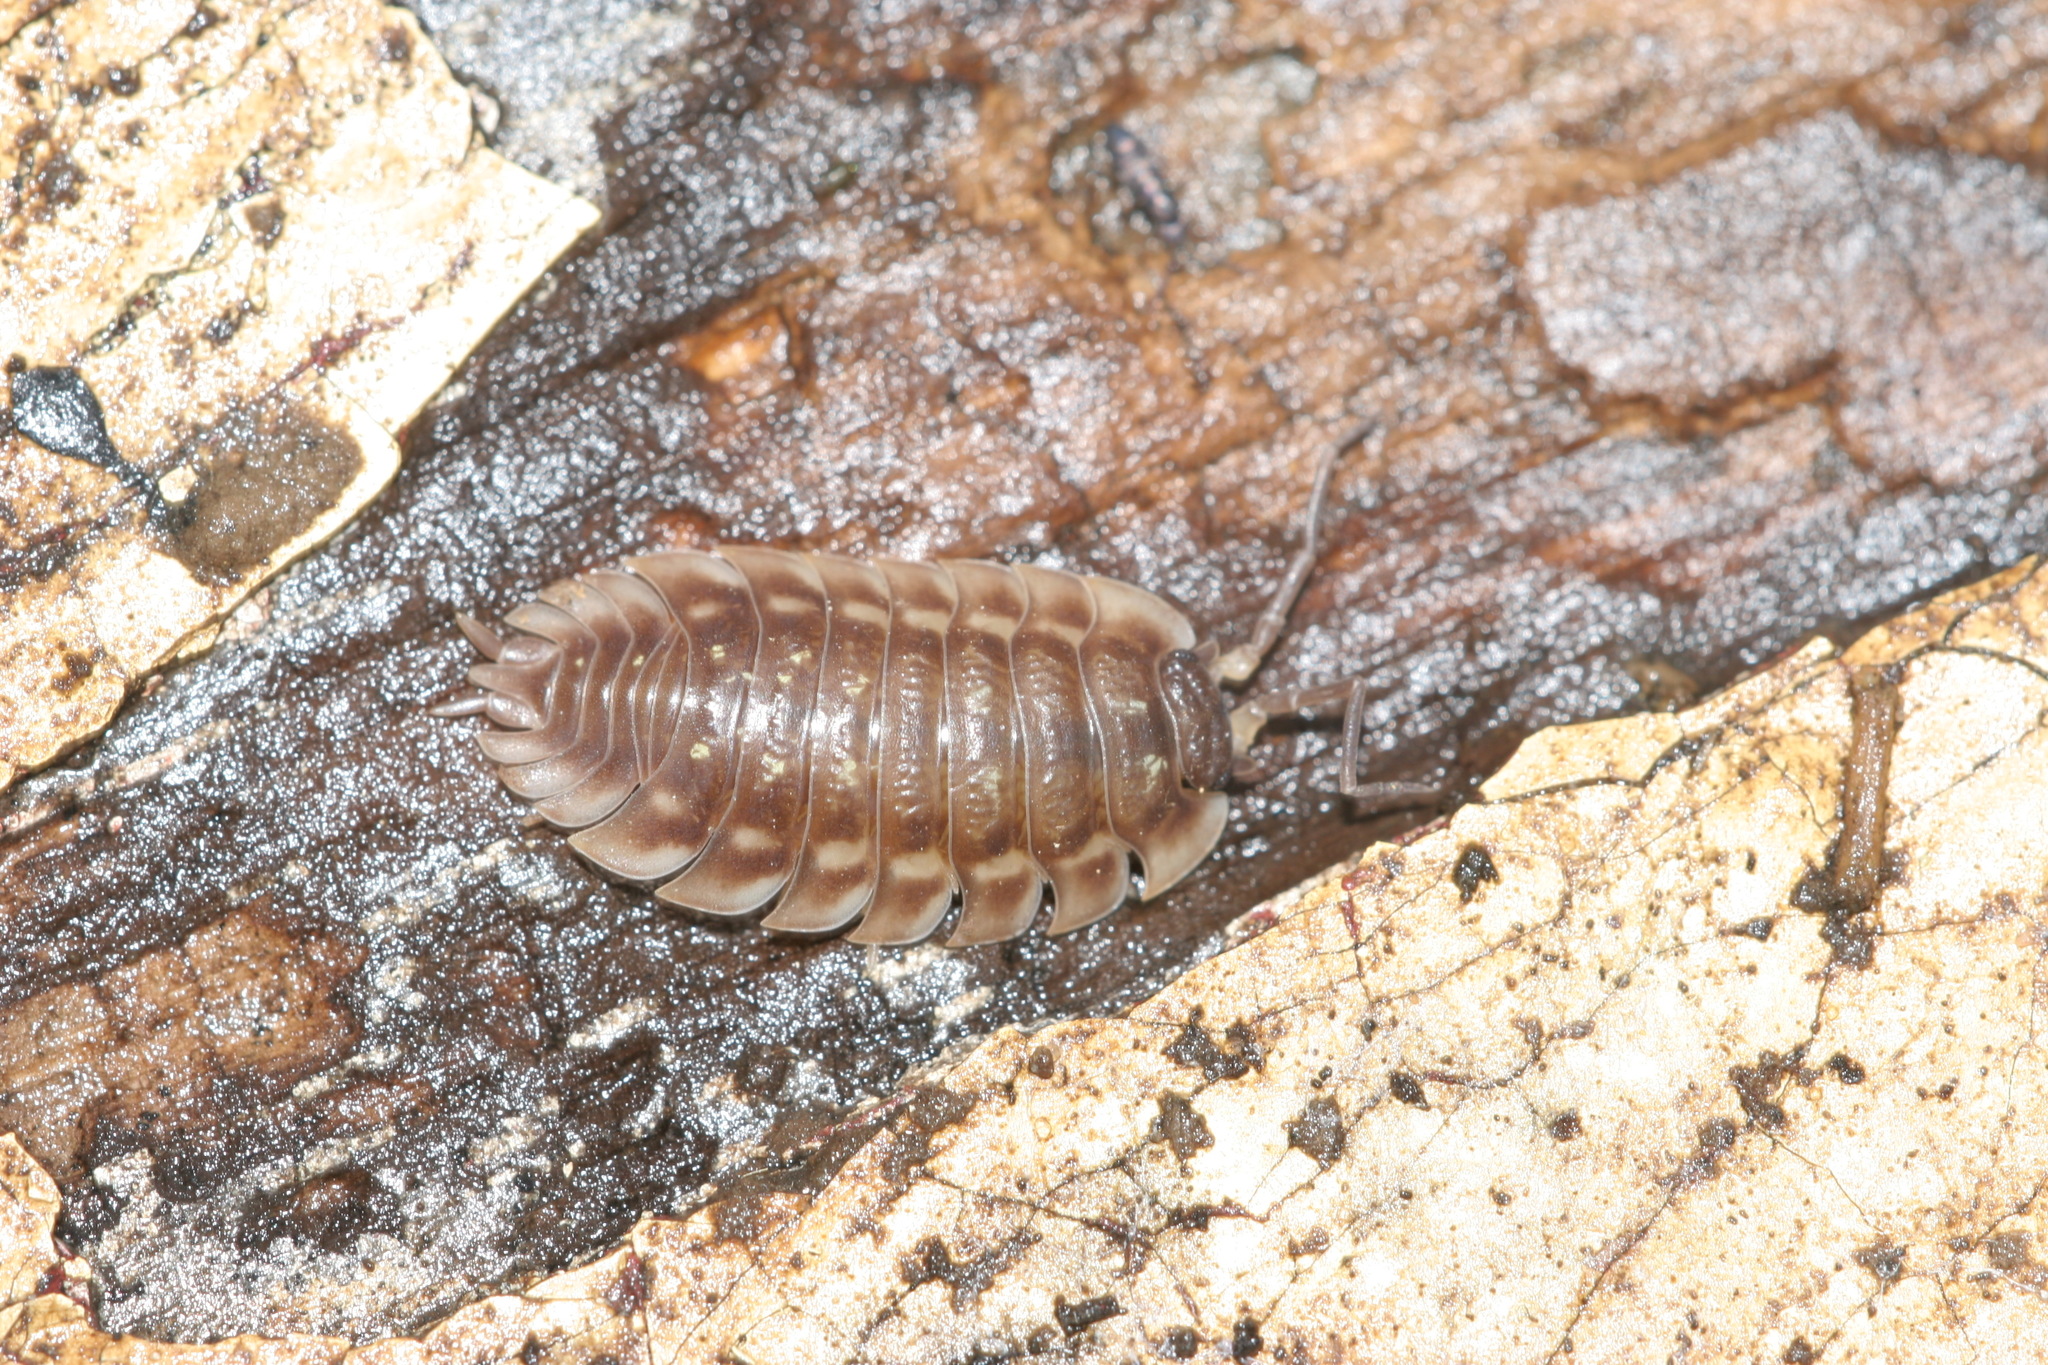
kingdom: Animalia
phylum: Arthropoda
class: Malacostraca
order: Isopoda
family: Oniscidae
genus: Oniscus
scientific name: Oniscus asellus
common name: Common shiny woodlouse
